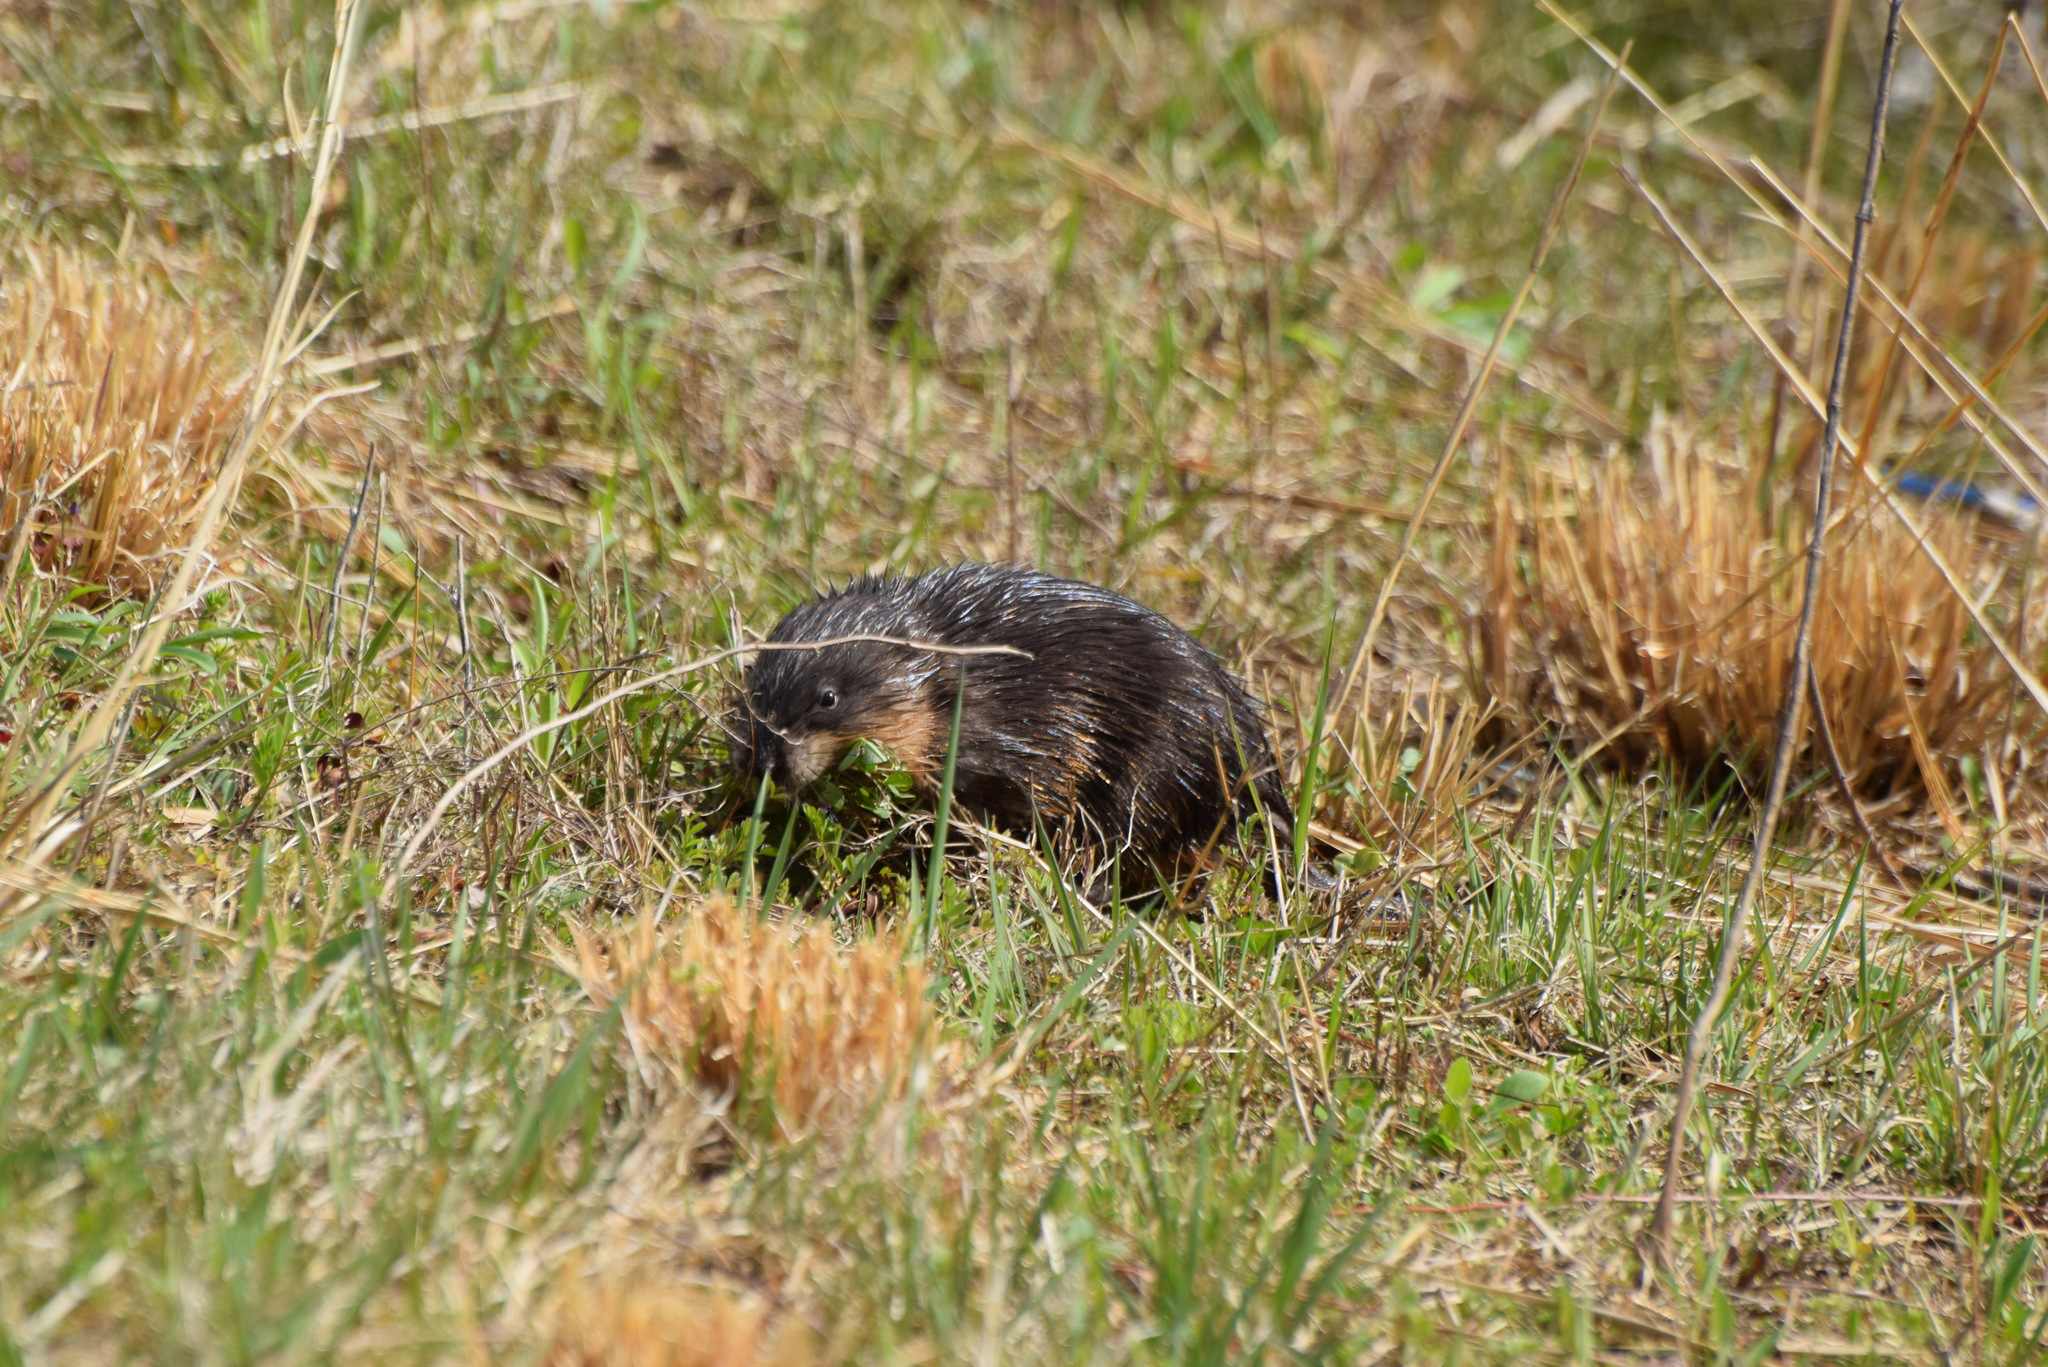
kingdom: Animalia
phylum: Chordata
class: Mammalia
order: Rodentia
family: Cricetidae
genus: Ondatra
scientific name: Ondatra zibethicus
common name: Muskrat
